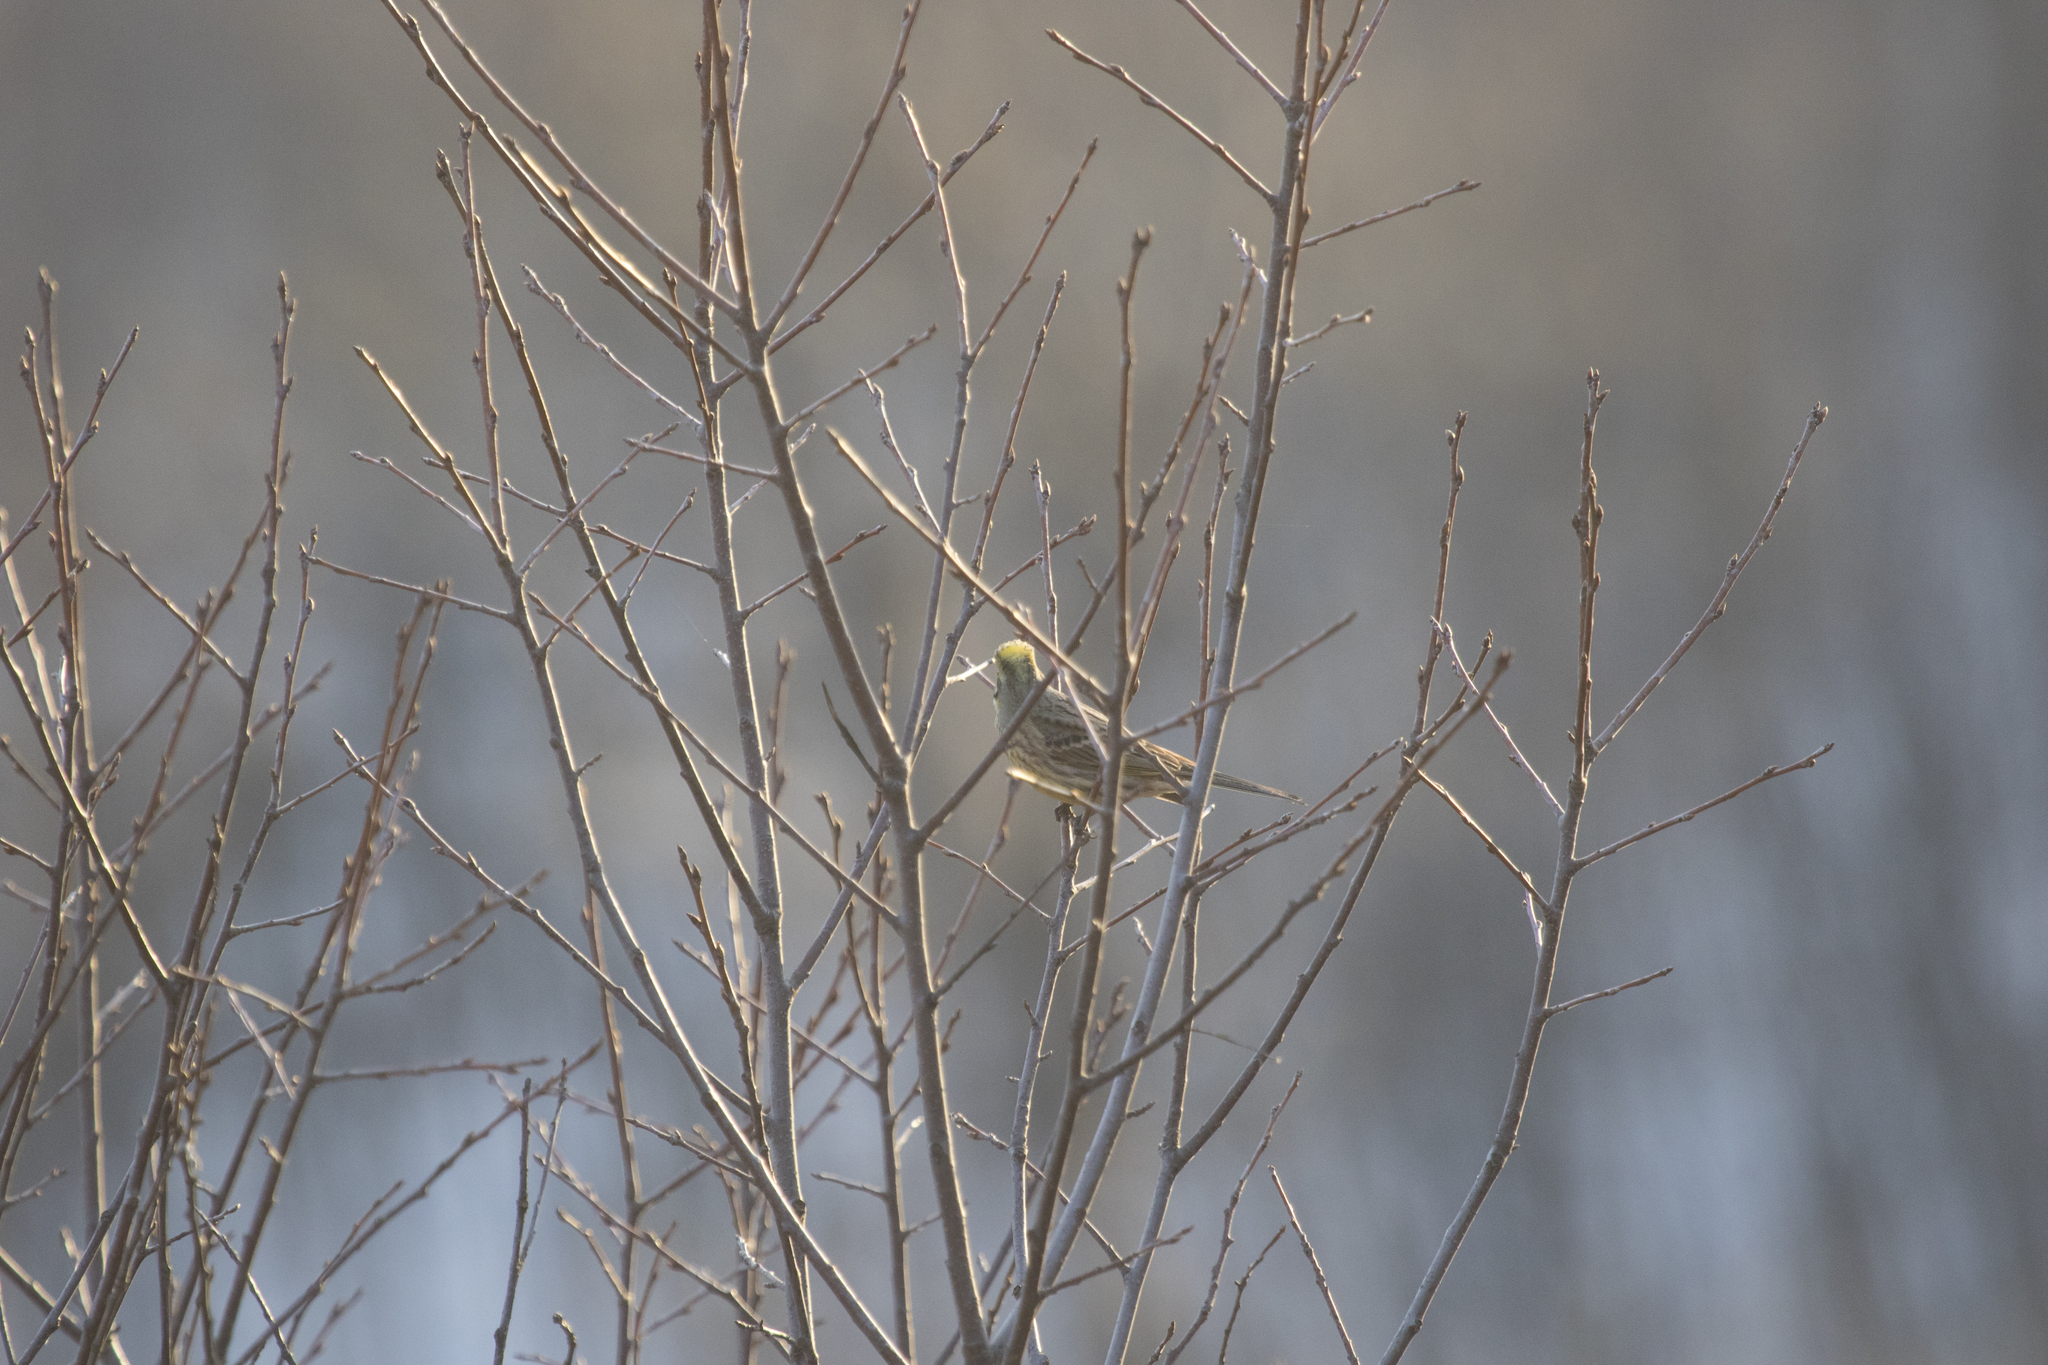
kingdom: Animalia
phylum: Chordata
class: Aves
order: Passeriformes
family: Emberizidae
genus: Emberiza
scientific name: Emberiza citrinella
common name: Yellowhammer
